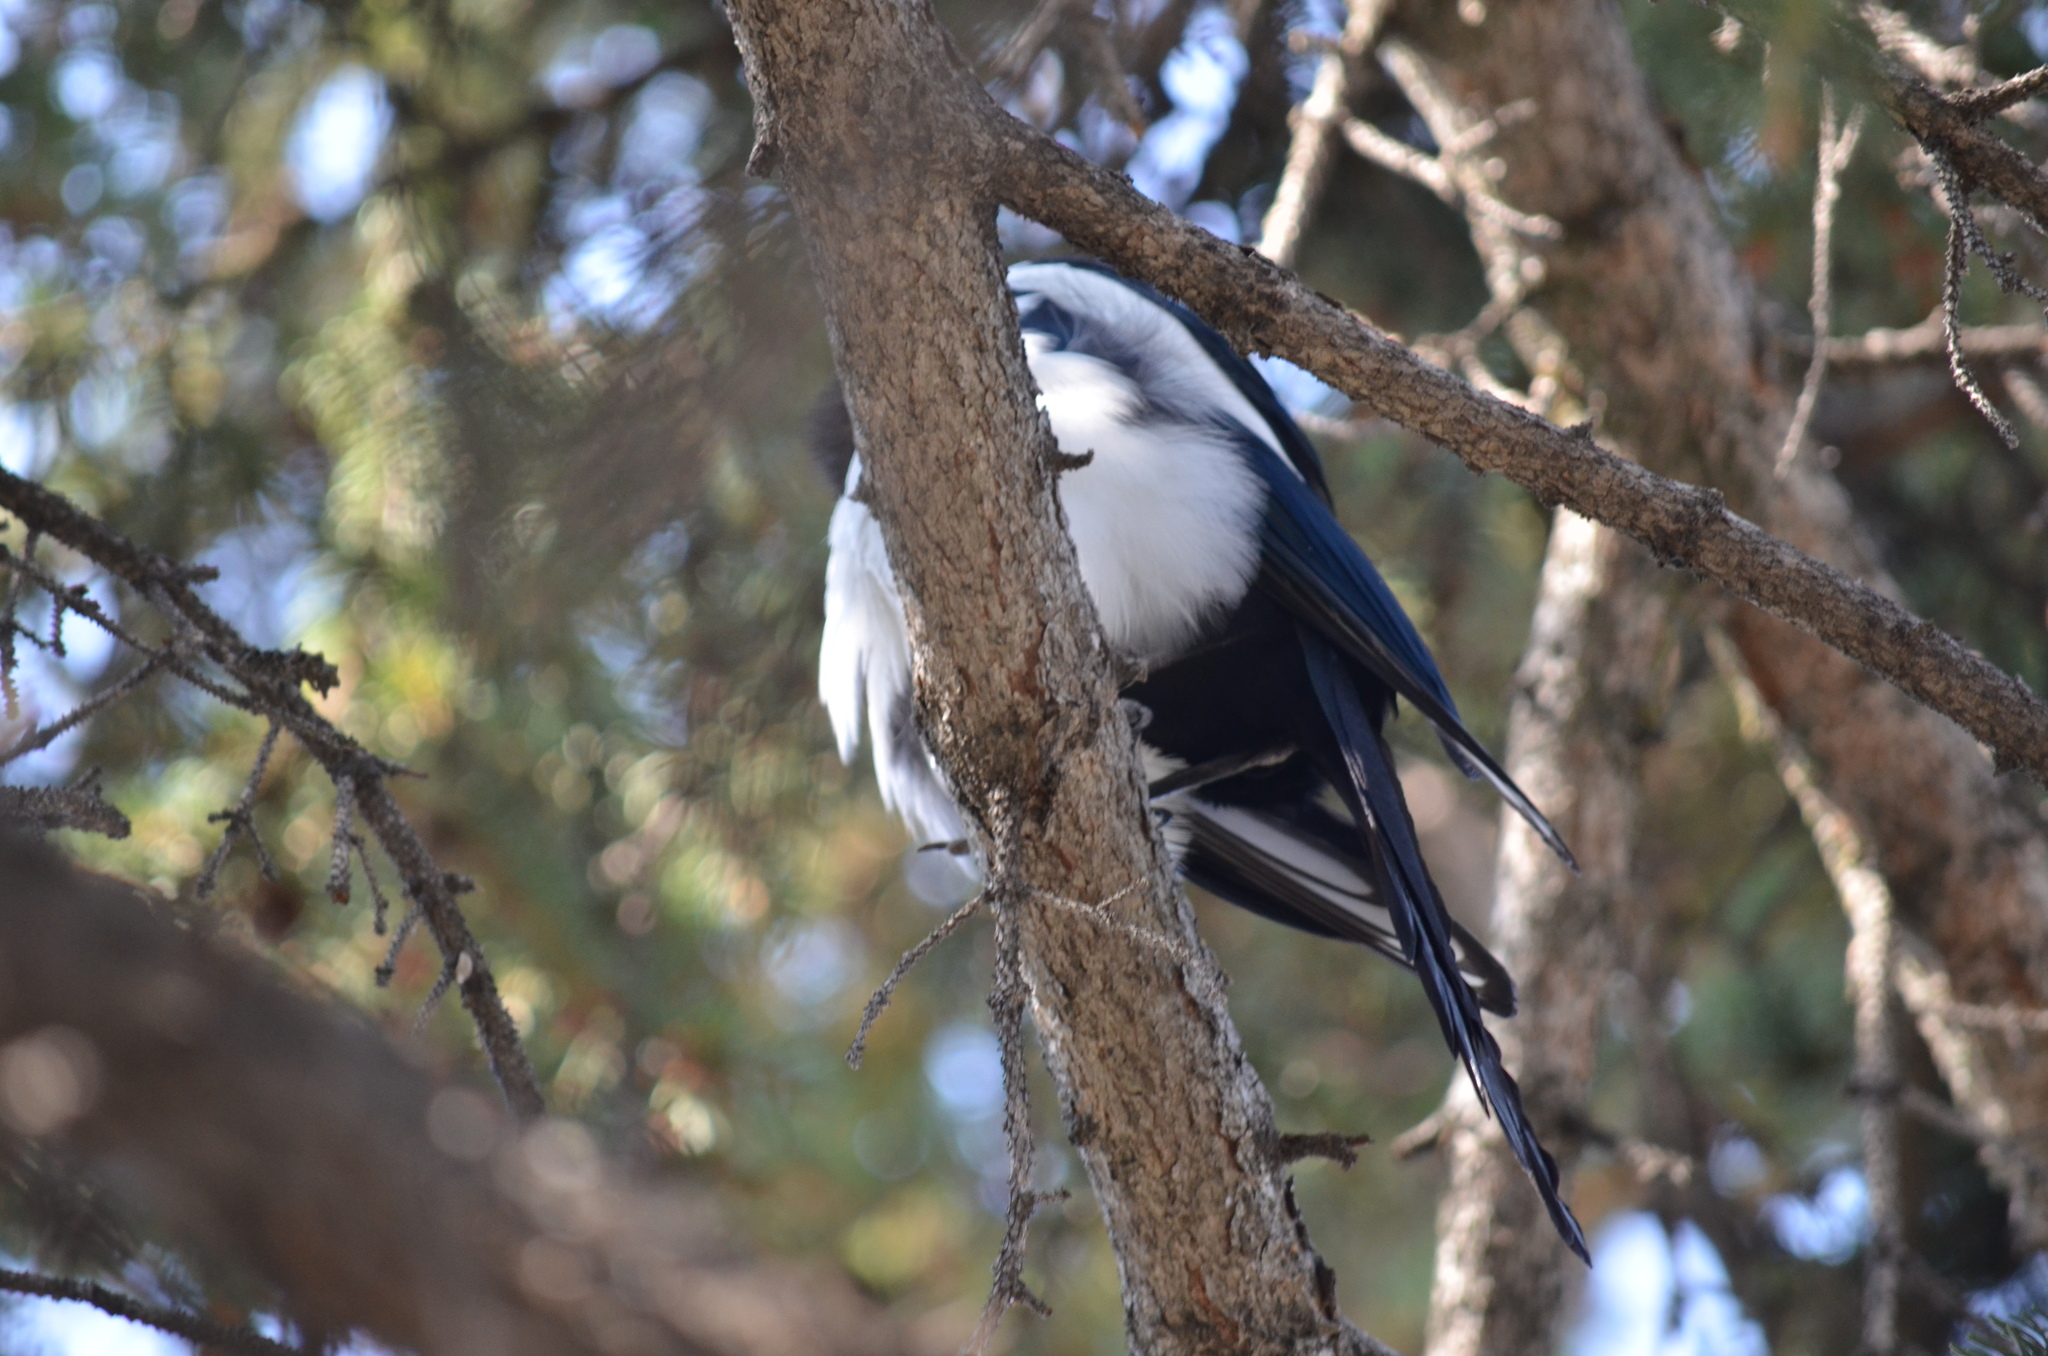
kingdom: Animalia
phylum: Chordata
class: Aves
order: Passeriformes
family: Corvidae
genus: Pica
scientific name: Pica hudsonia
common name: Black-billed magpie
